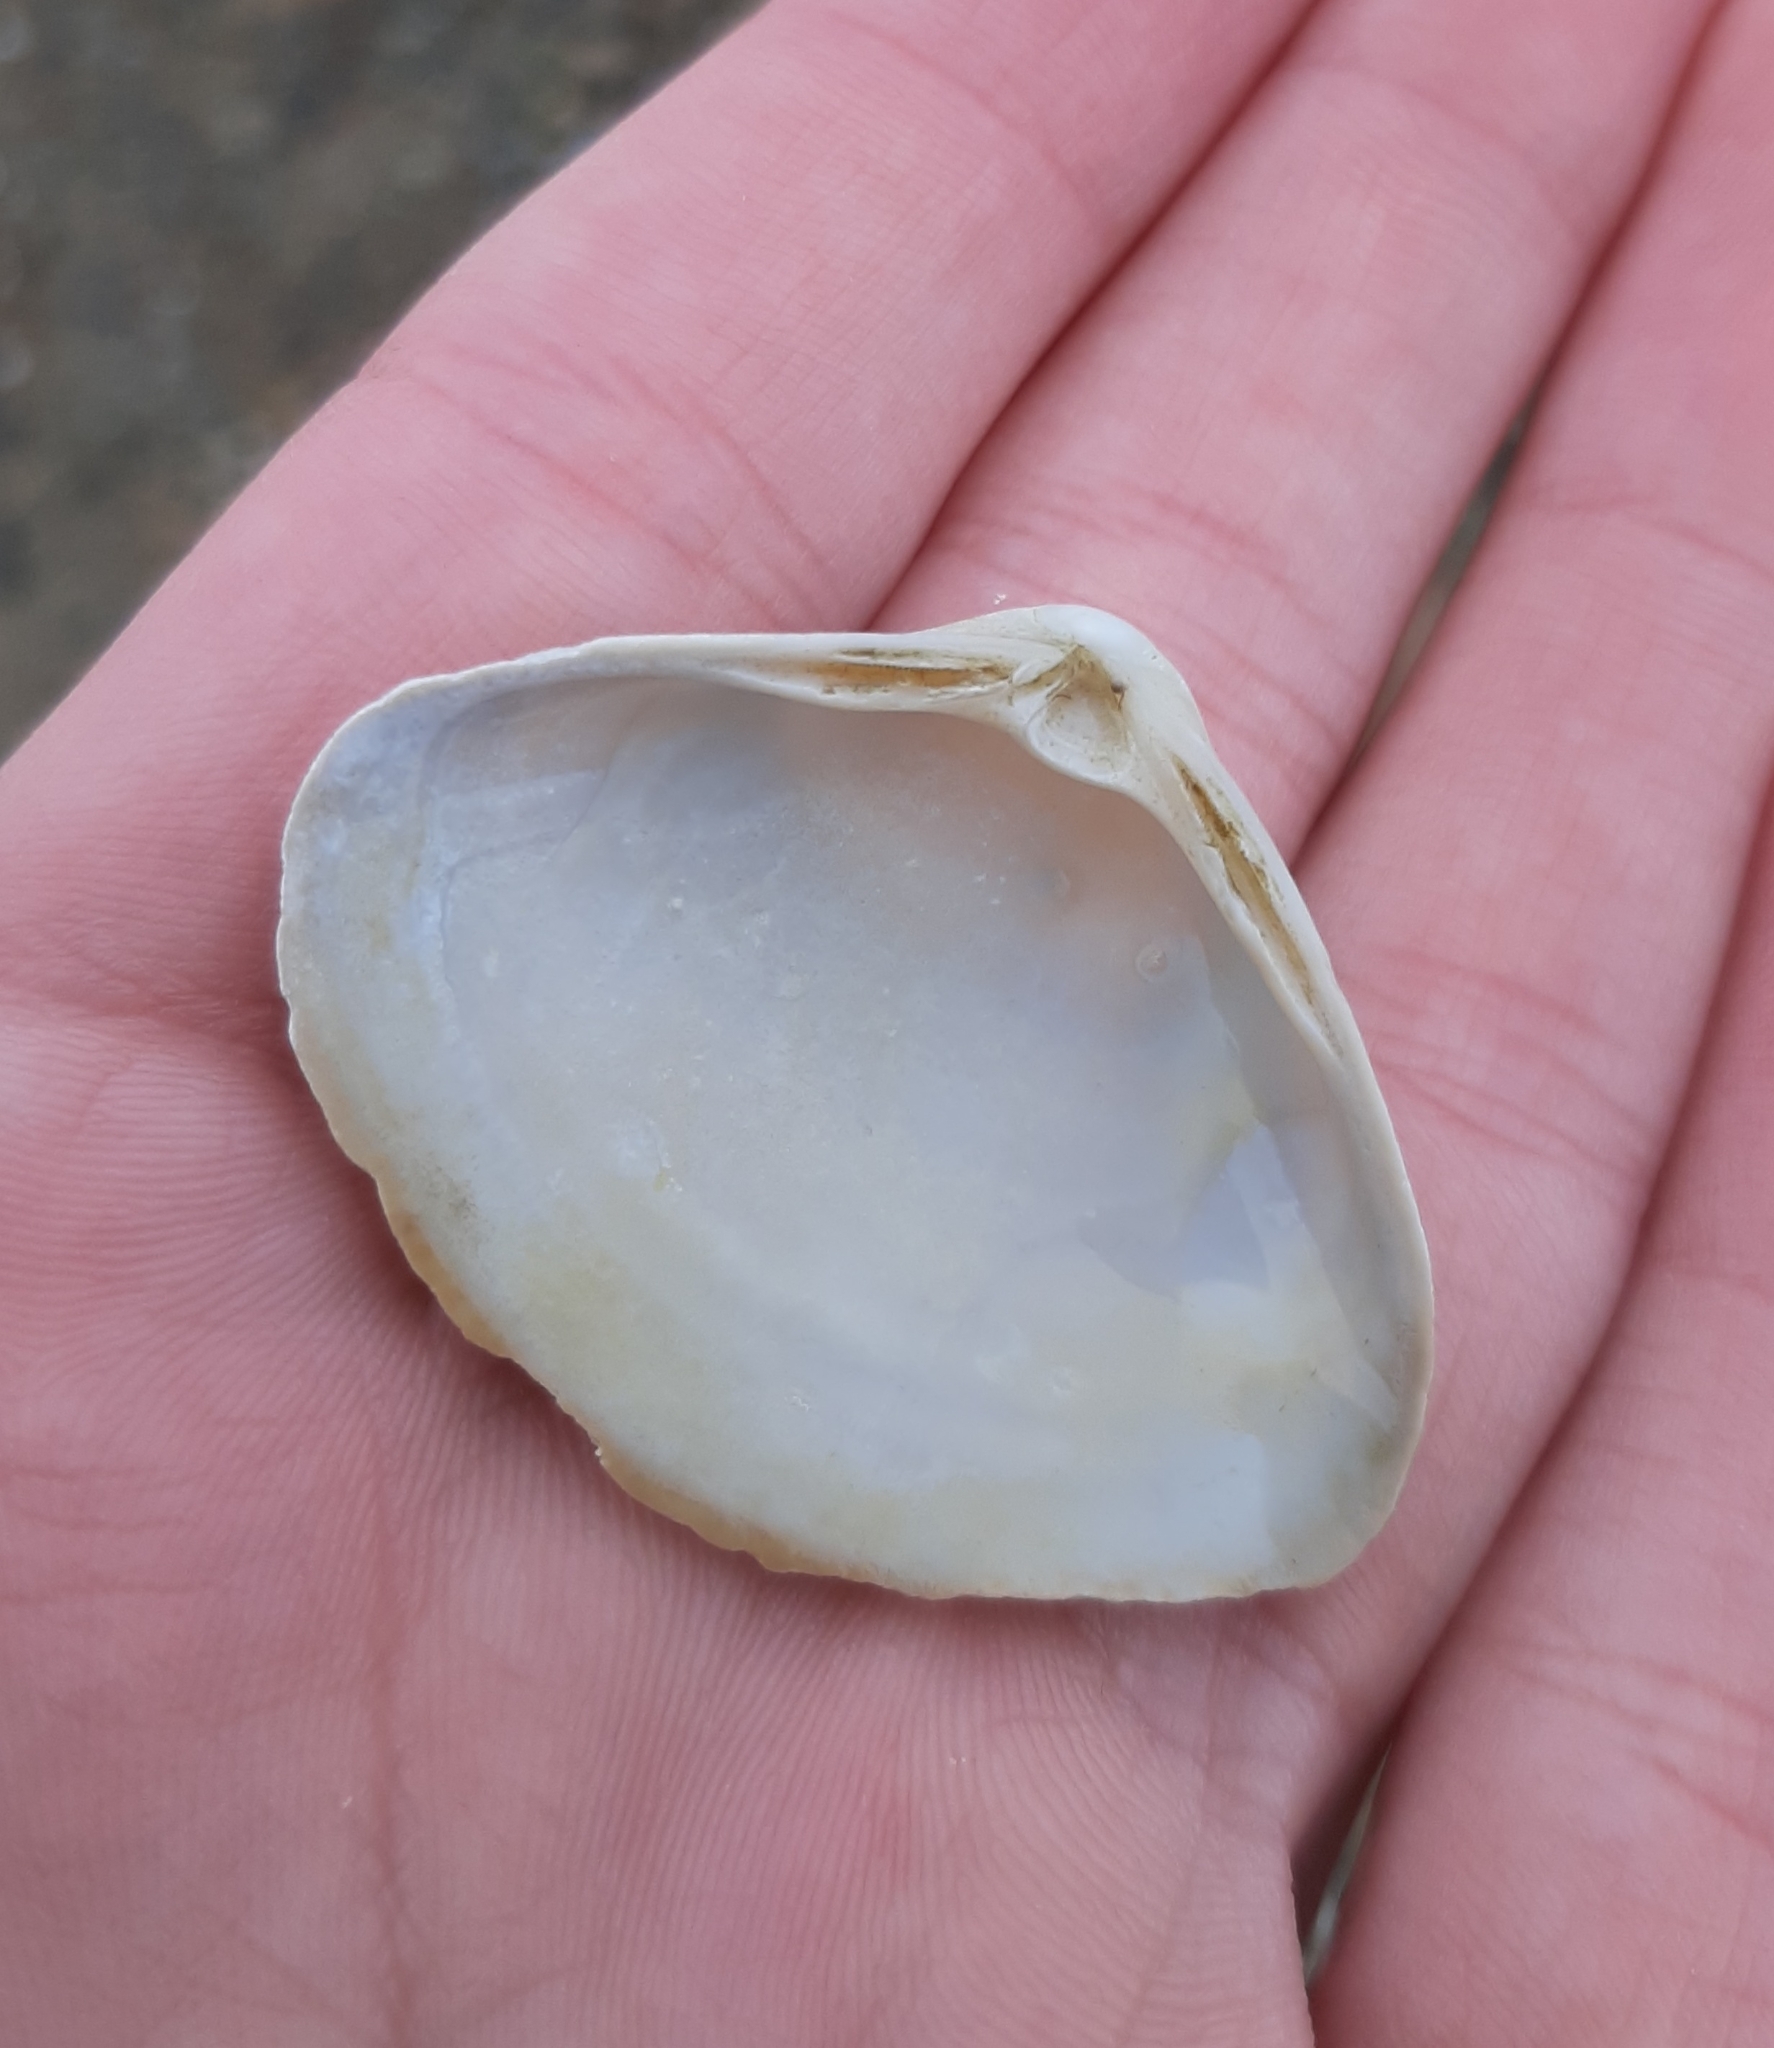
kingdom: Animalia
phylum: Mollusca
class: Bivalvia
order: Venerida
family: Mactridae
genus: Spisula
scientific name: Spisula solidissima
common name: Atlantic surf clam
